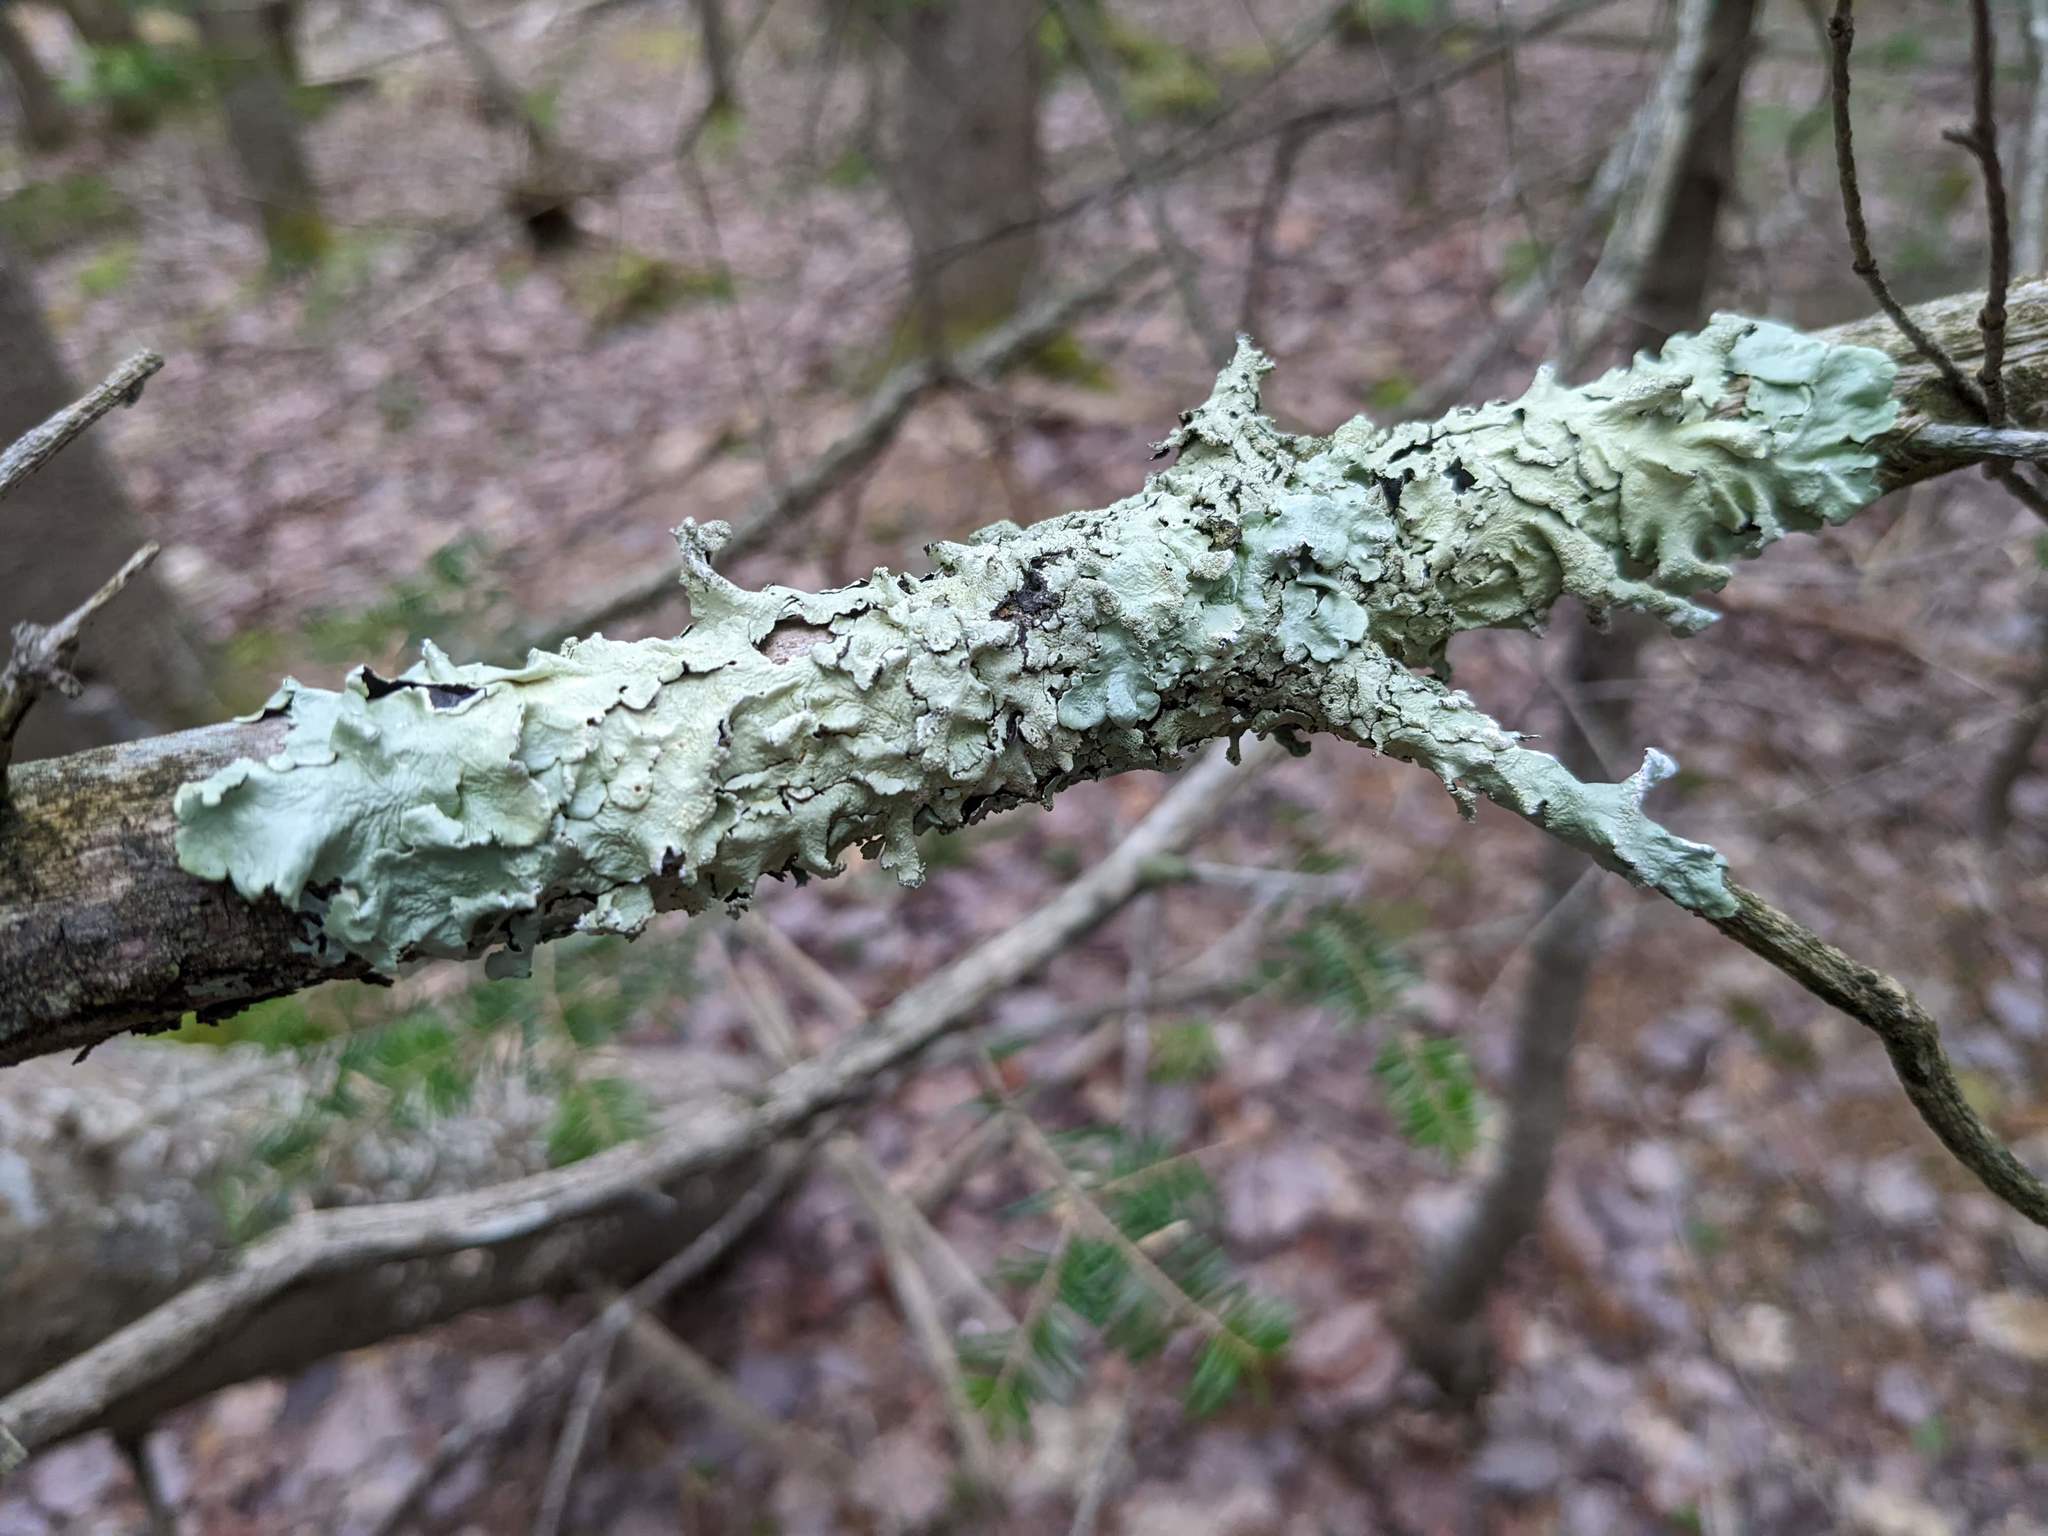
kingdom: Fungi
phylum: Ascomycota
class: Lecanoromycetes
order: Lecanorales
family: Parmeliaceae
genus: Flavoparmelia
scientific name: Flavoparmelia caperata
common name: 40-mile per hour lichen
